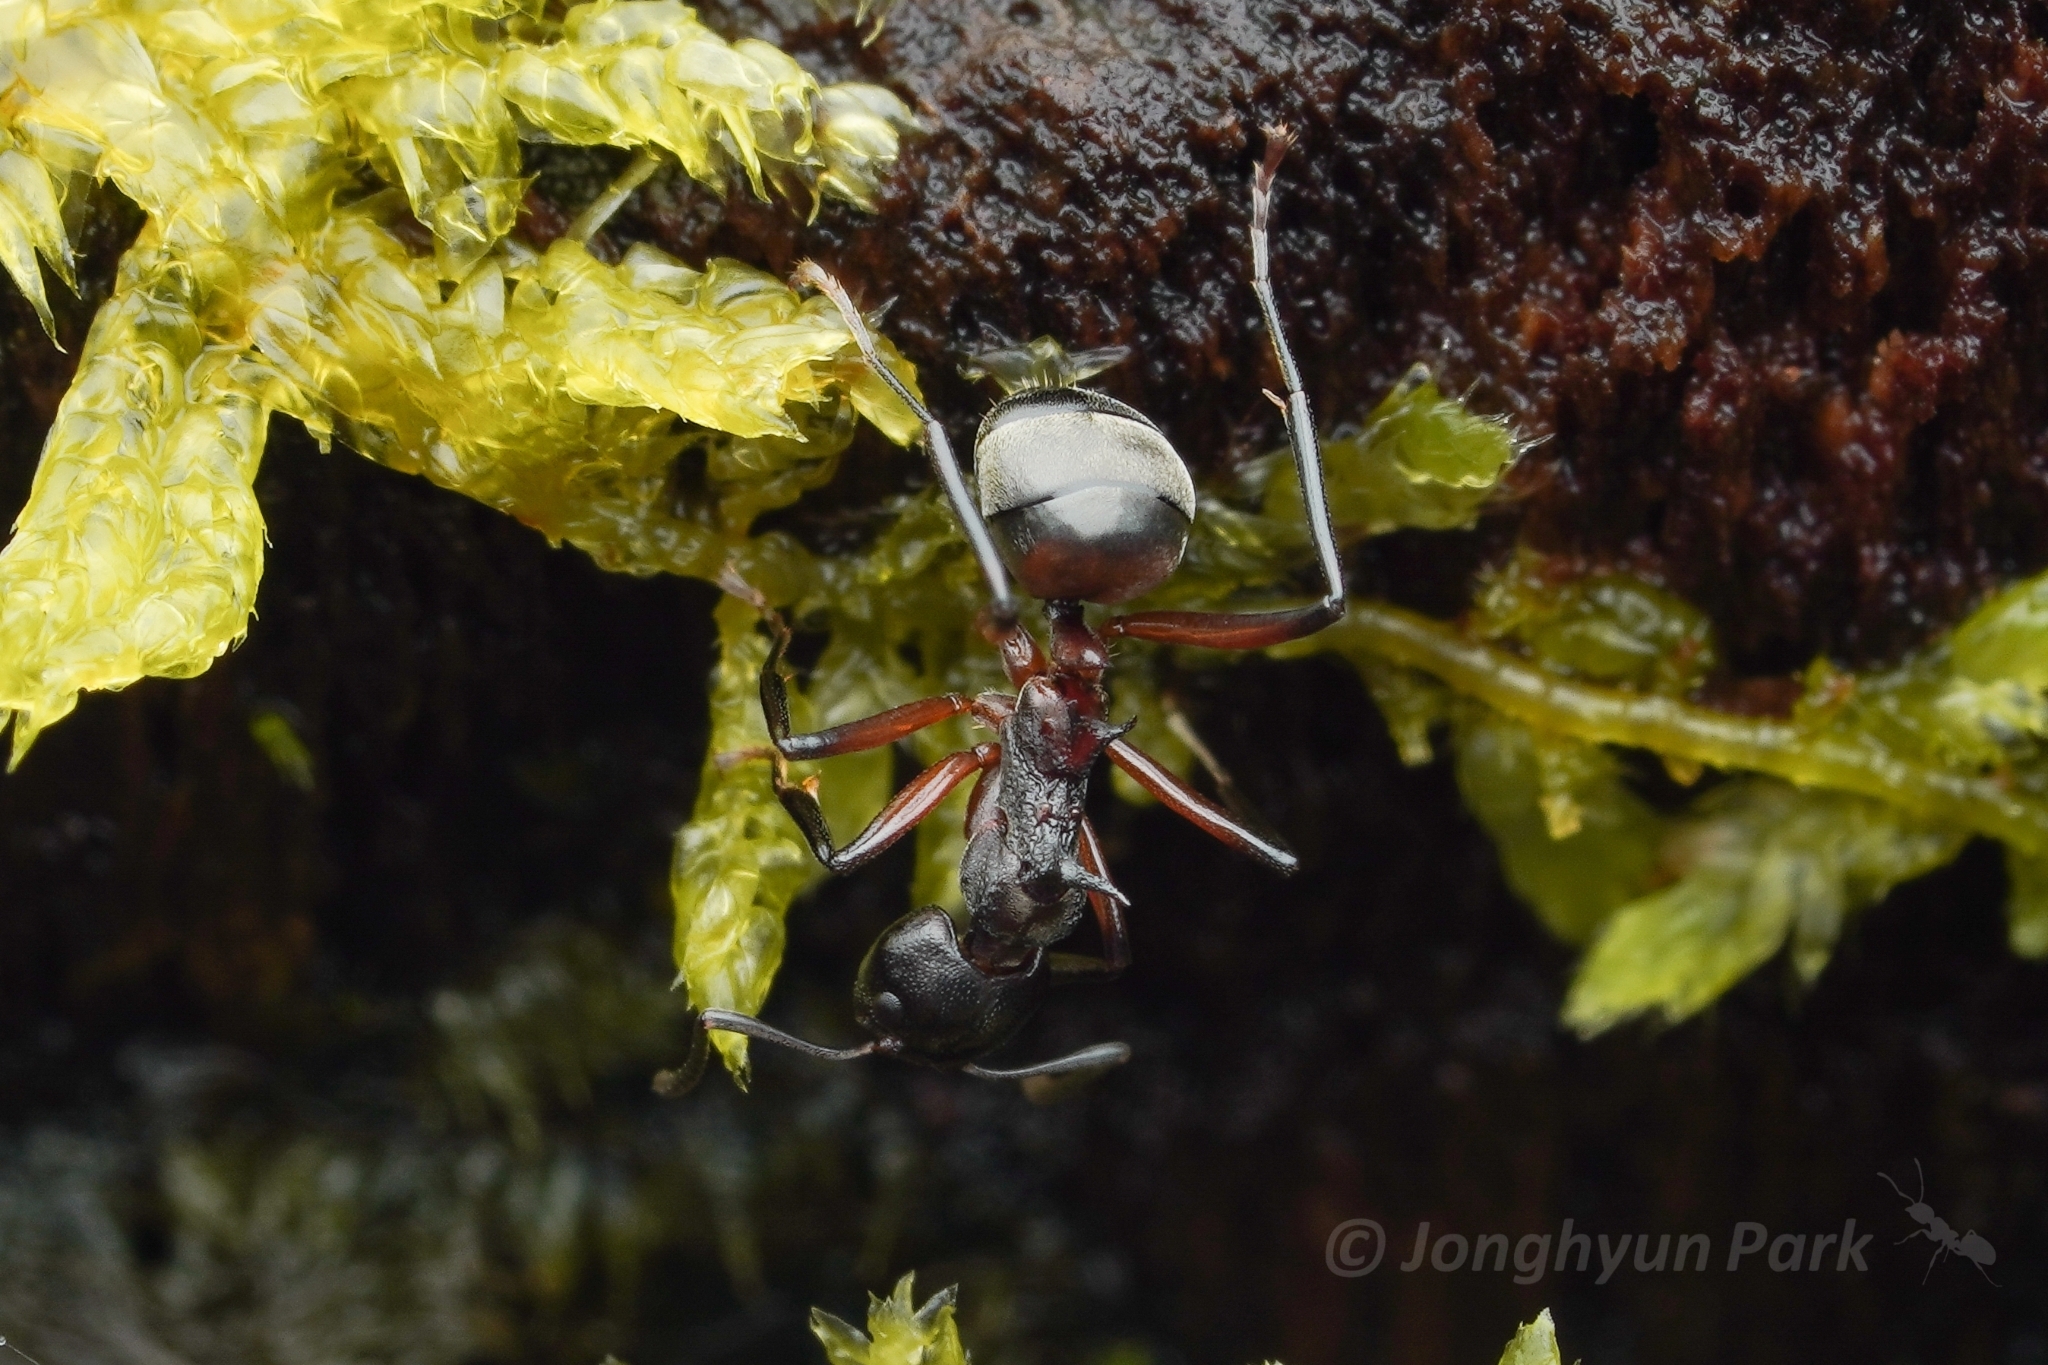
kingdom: Animalia
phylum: Arthropoda
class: Insecta
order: Hymenoptera
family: Formicidae
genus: Dolichoderus
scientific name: Dolichoderus cuspidatus
